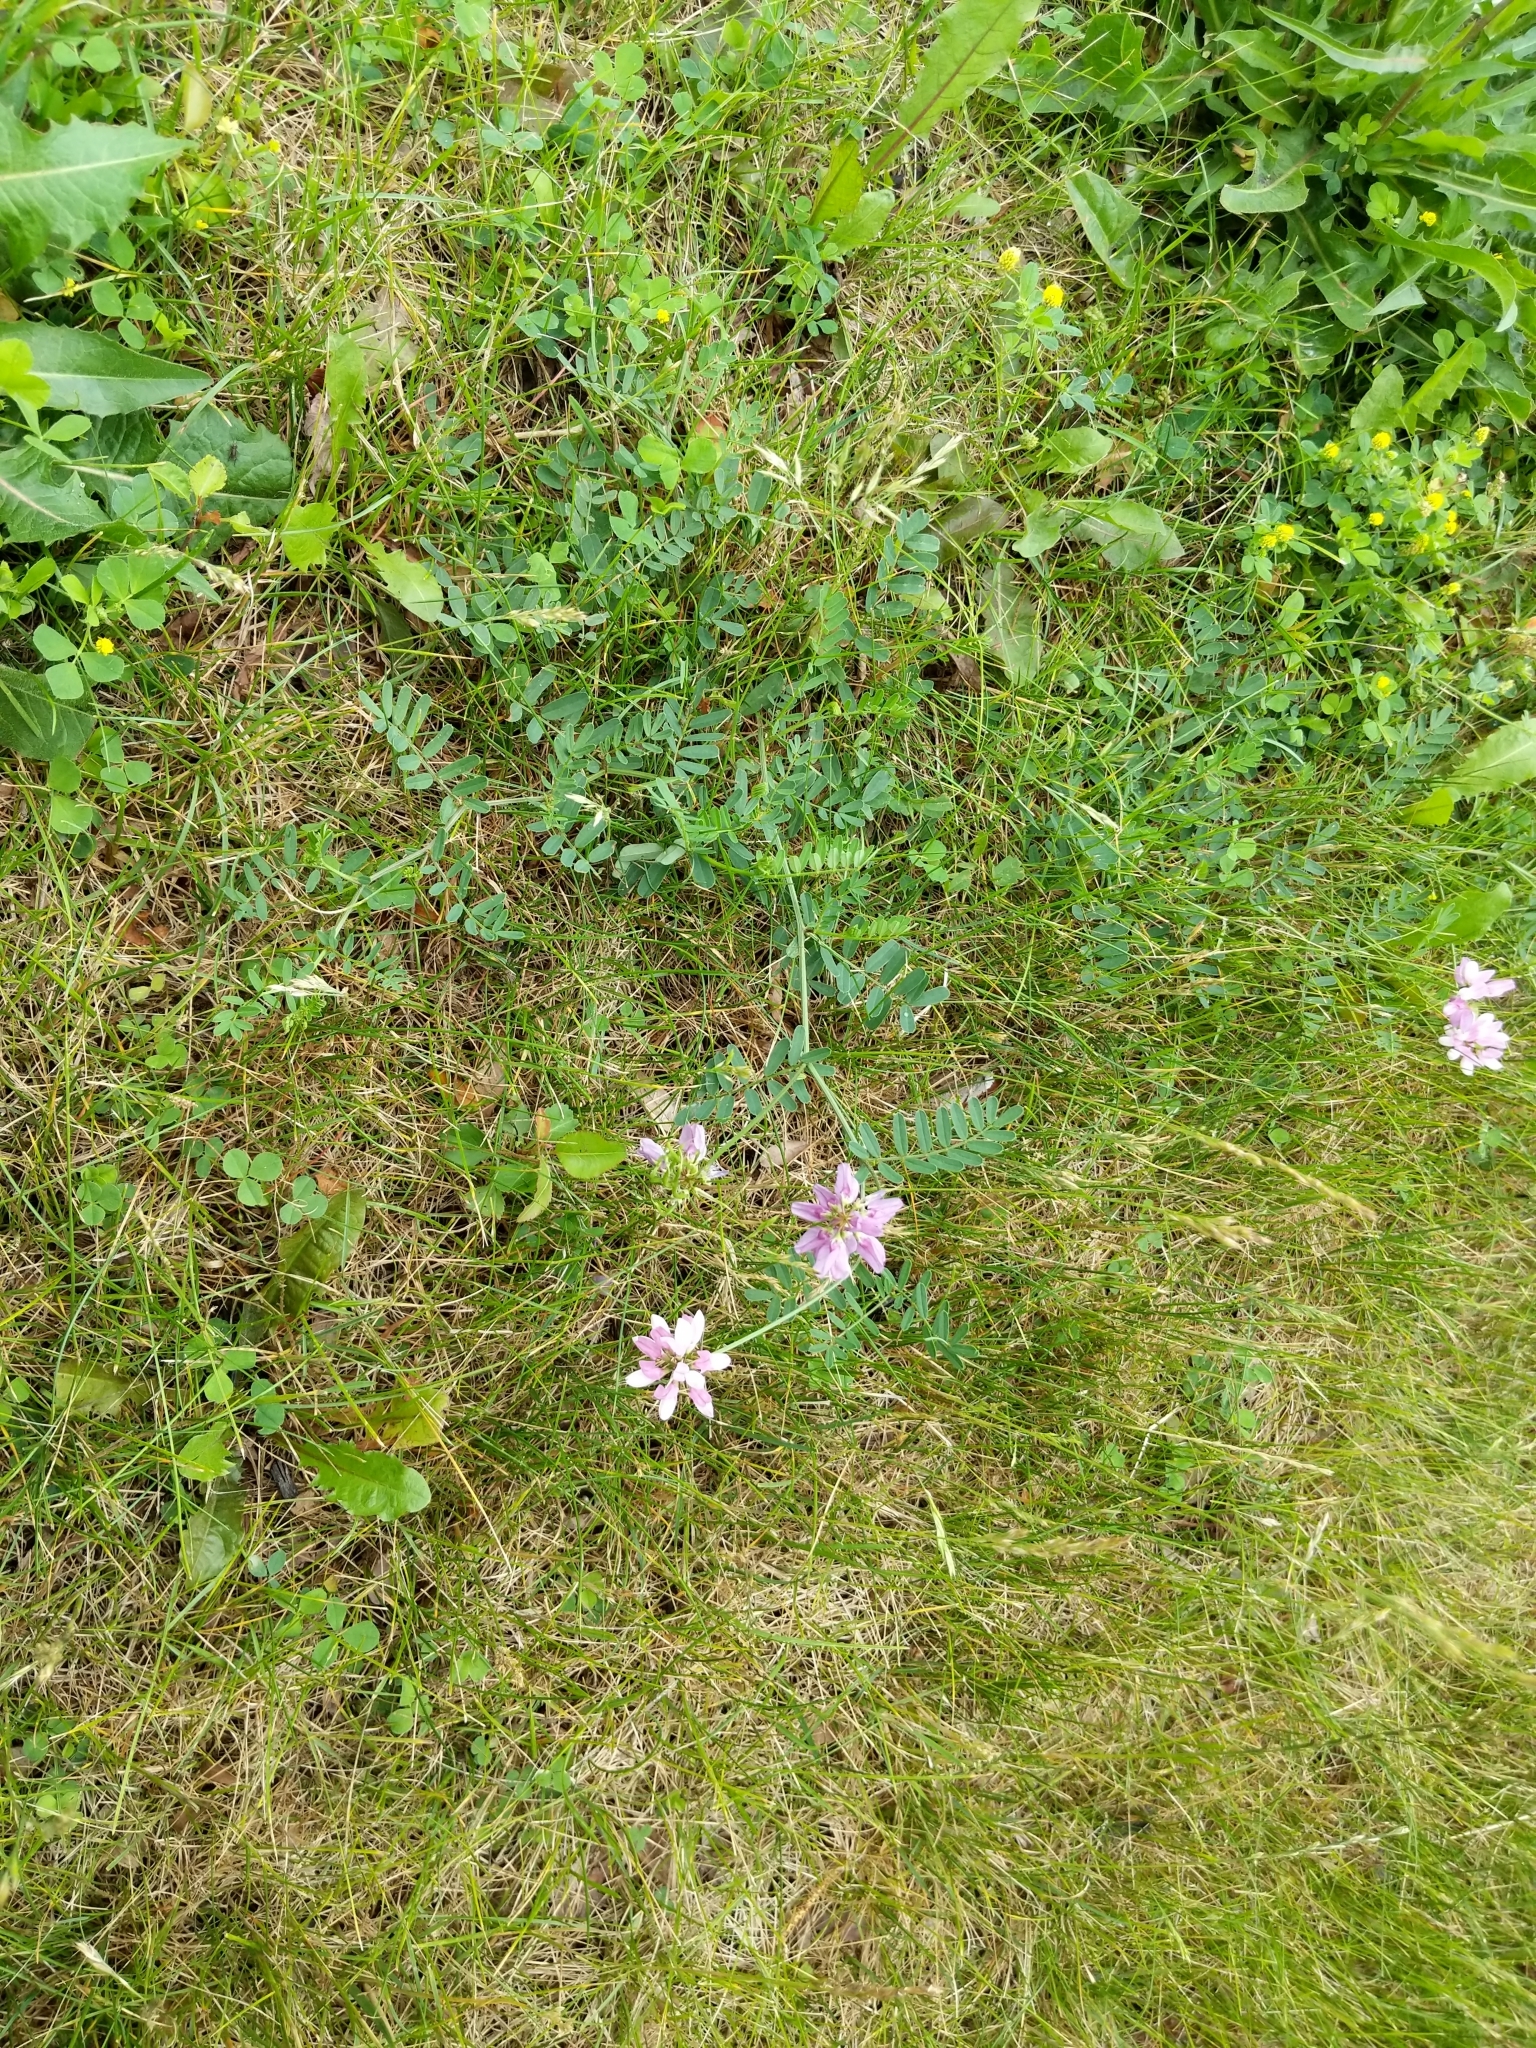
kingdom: Plantae
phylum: Tracheophyta
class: Magnoliopsida
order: Fabales
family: Fabaceae
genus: Coronilla
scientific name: Coronilla varia
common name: Crownvetch
